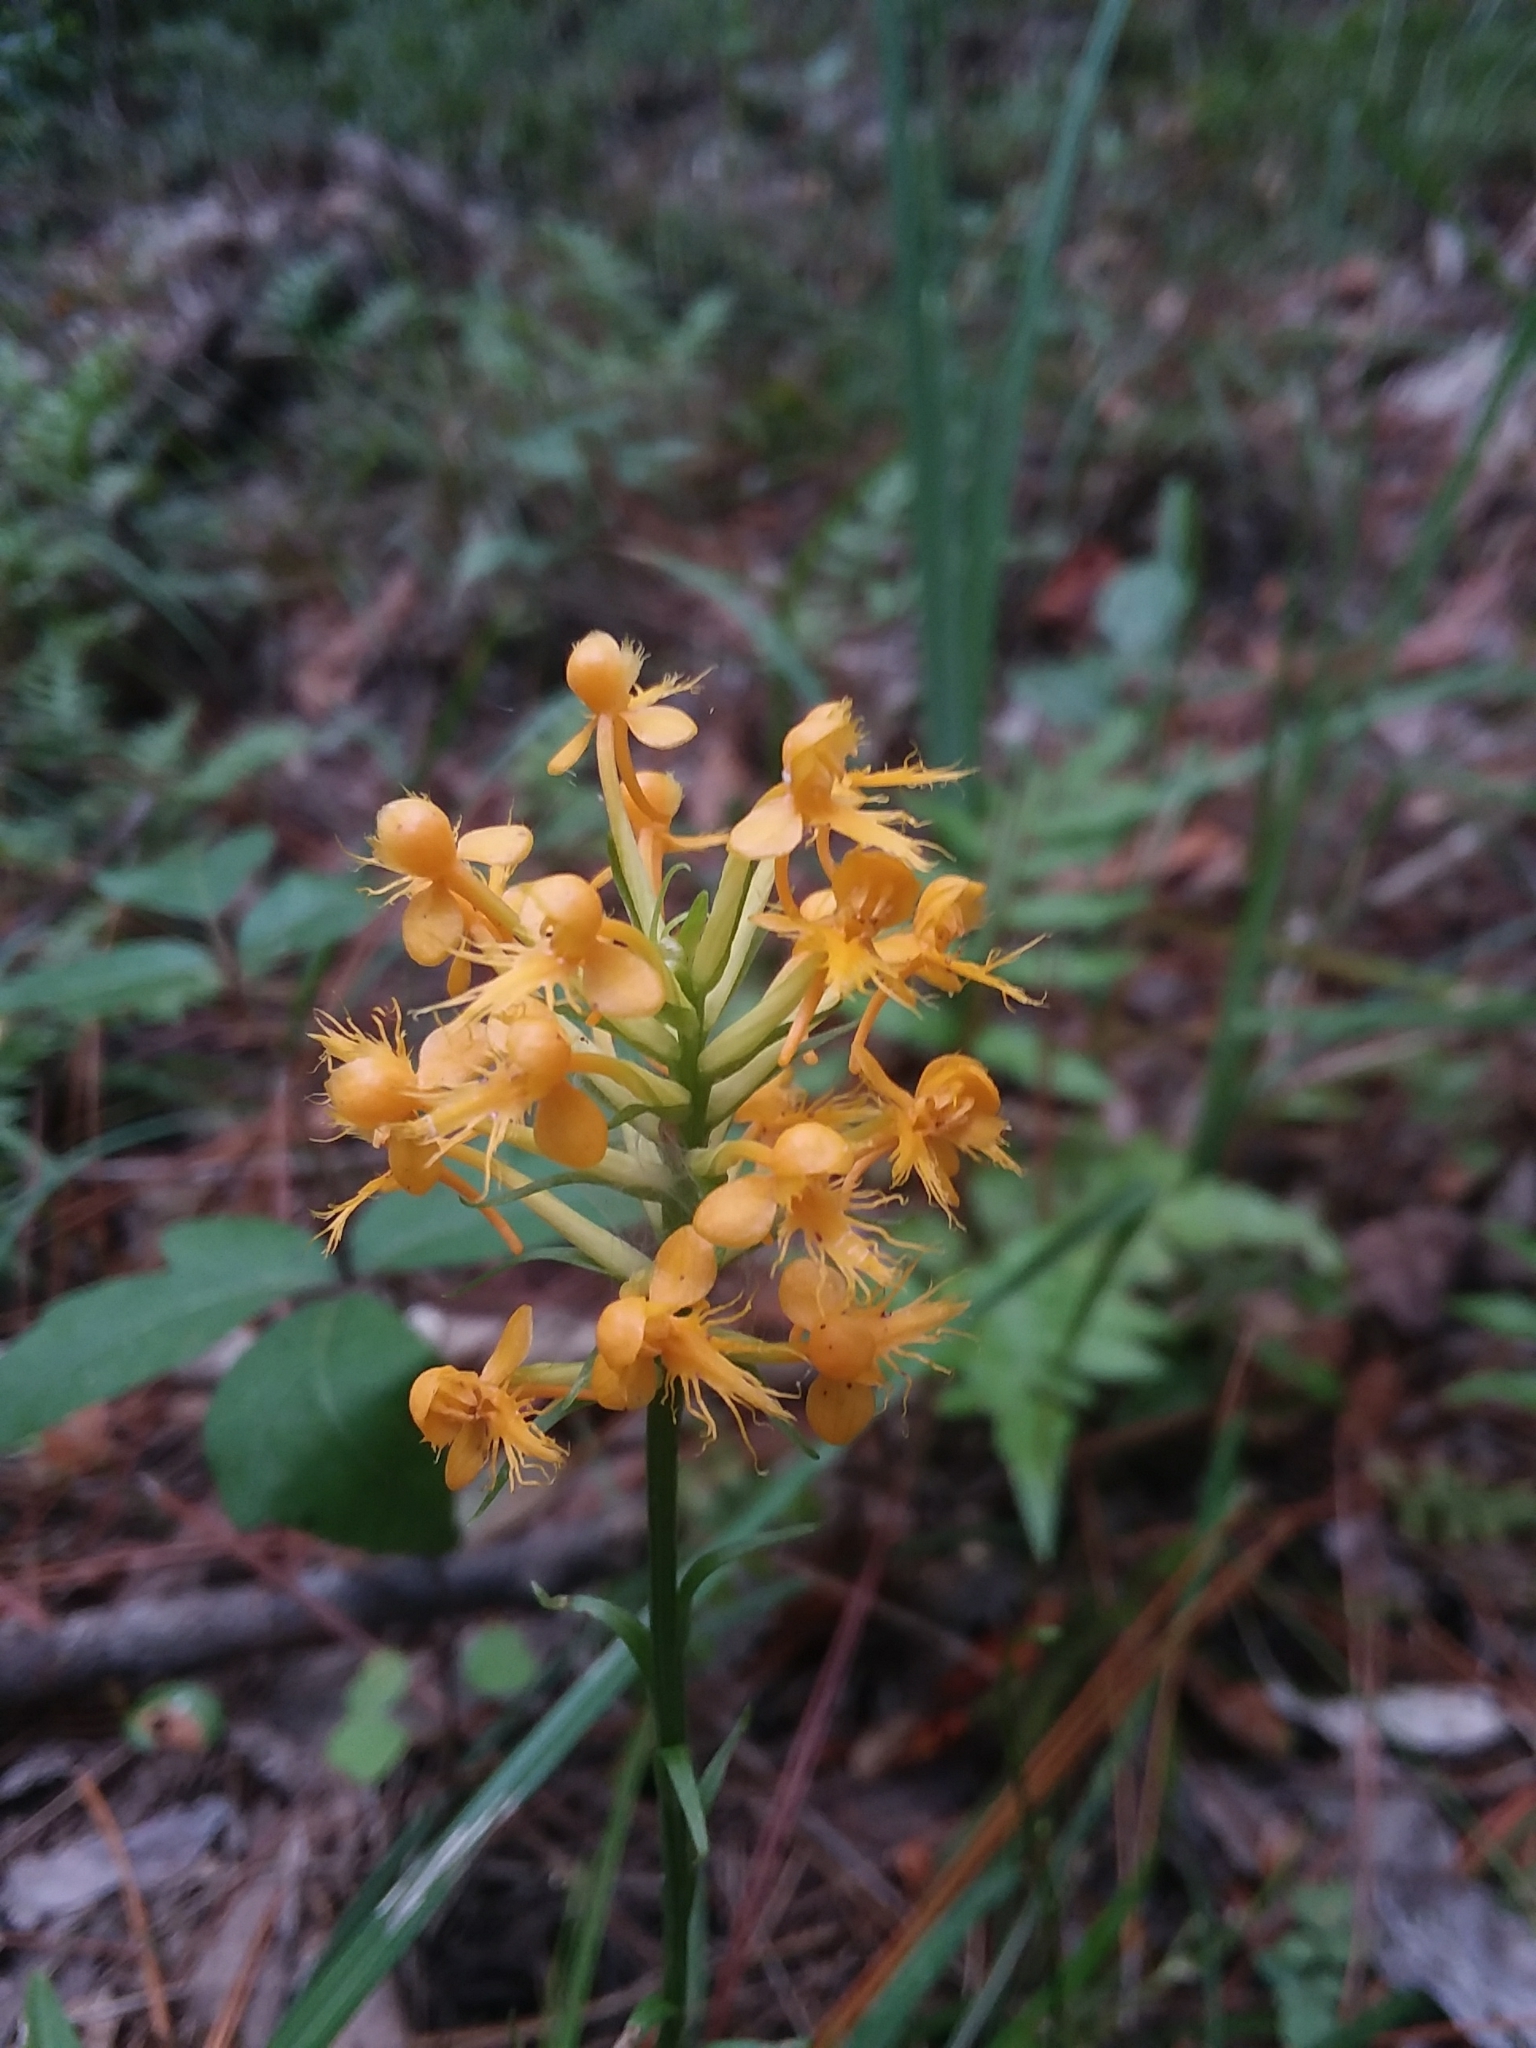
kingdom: Plantae
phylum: Tracheophyta
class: Liliopsida
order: Asparagales
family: Orchidaceae
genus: Platanthera
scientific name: Platanthera cristata
